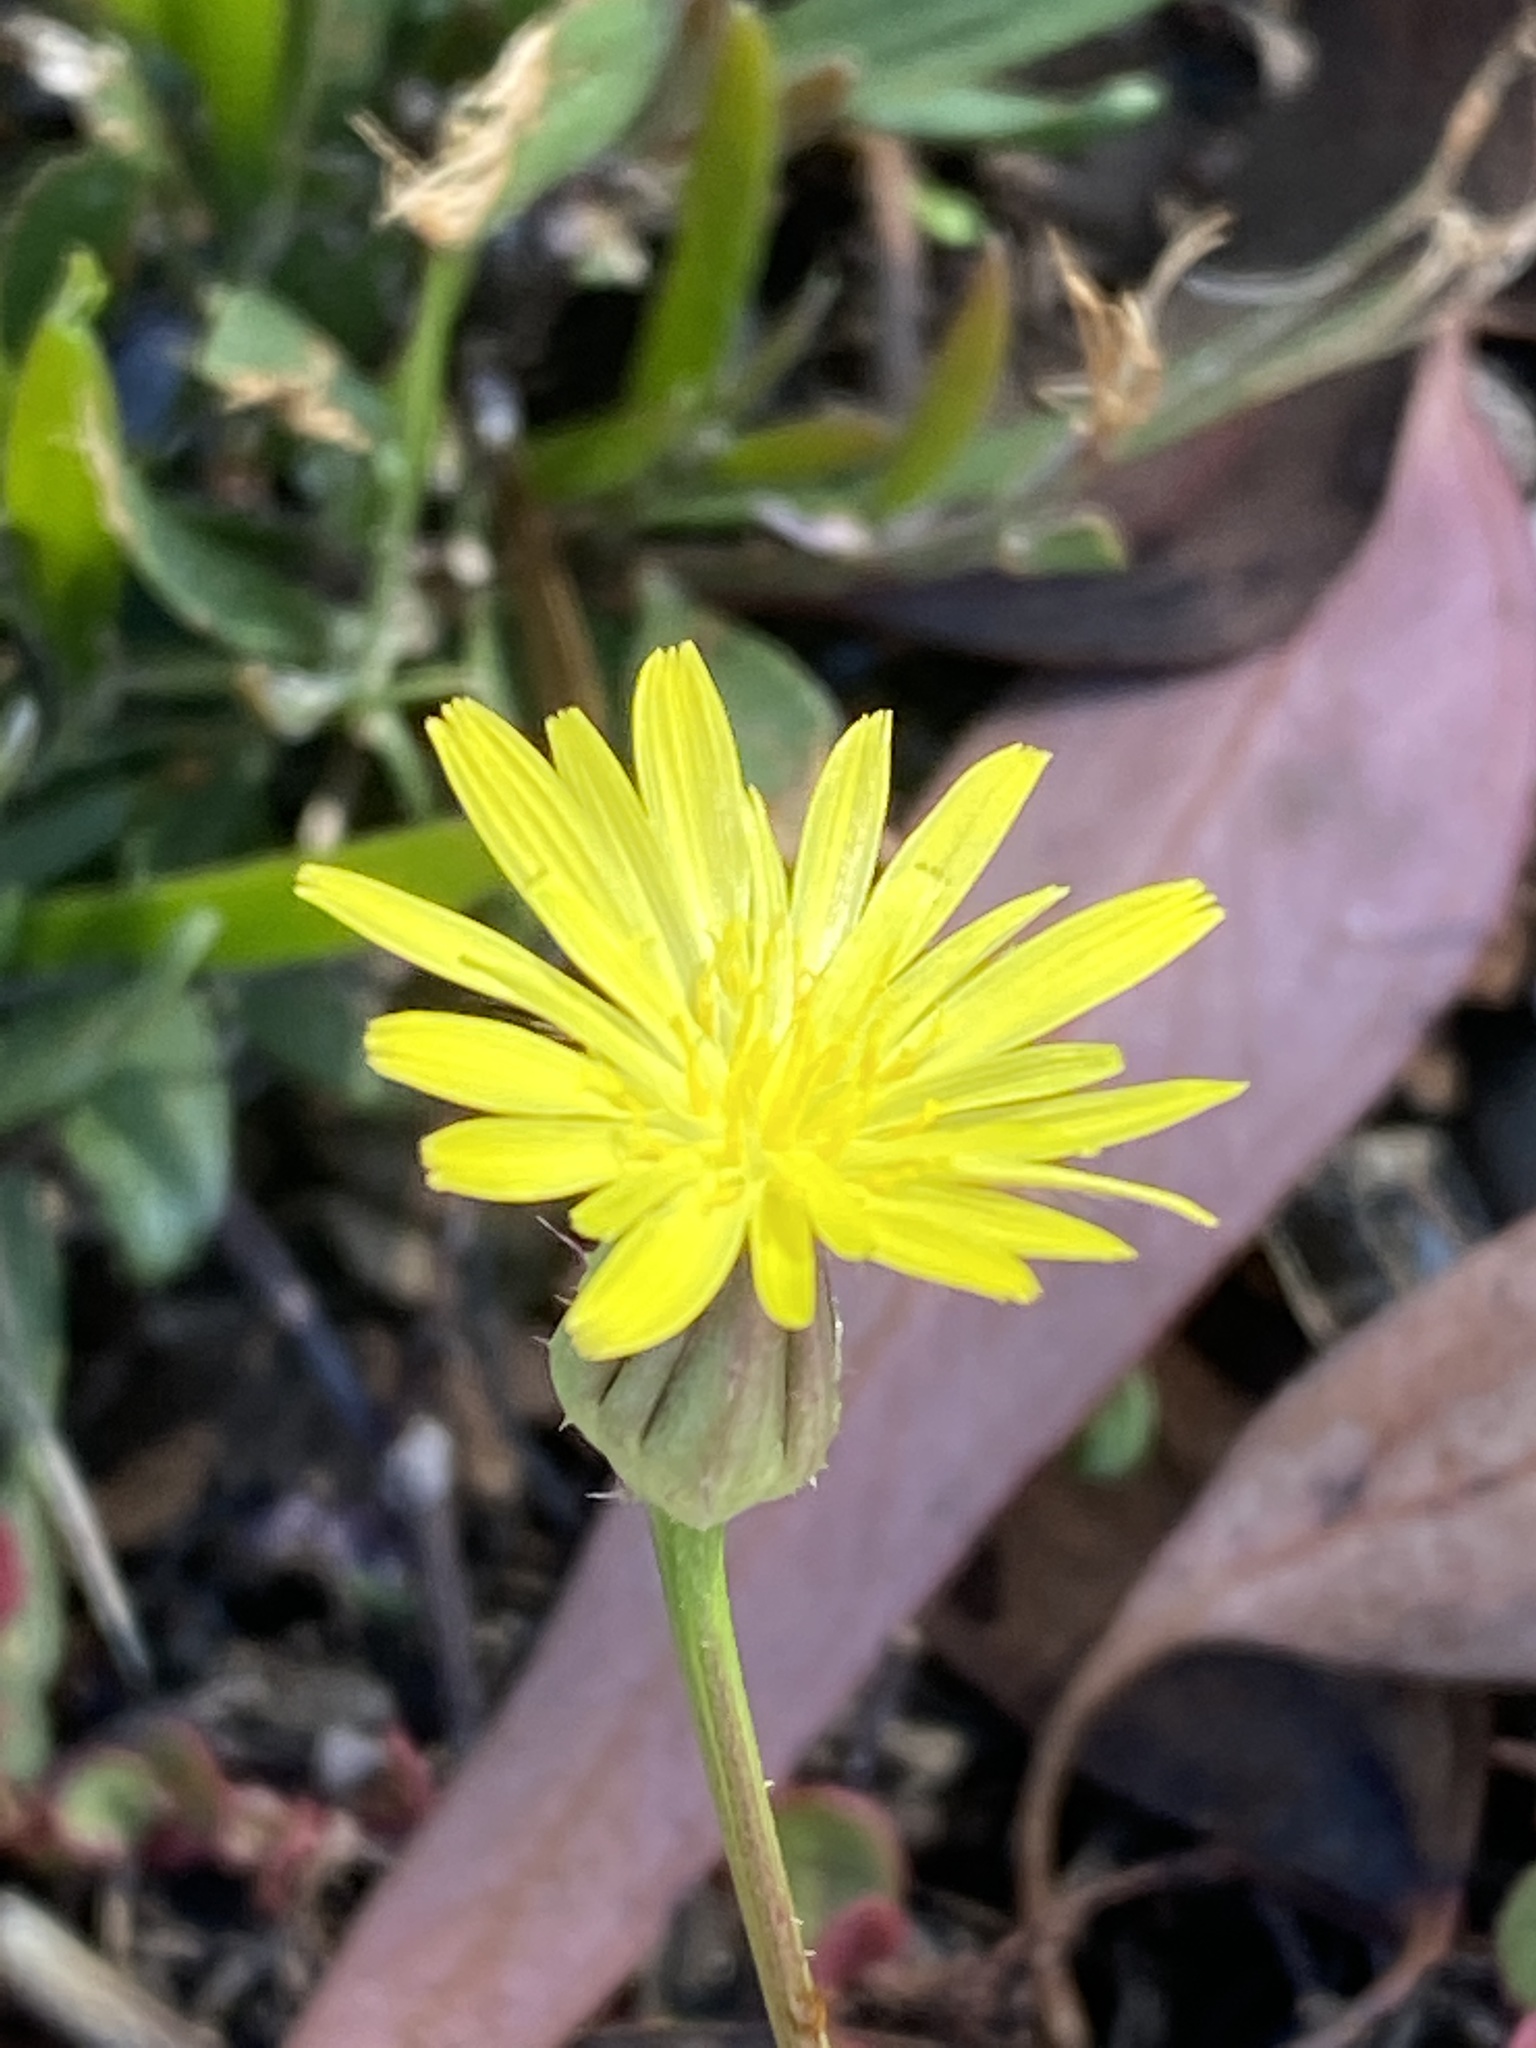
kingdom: Plantae
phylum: Tracheophyta
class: Magnoliopsida
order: Asterales
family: Asteraceae
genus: Urospermum
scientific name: Urospermum picroides
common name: False hawkbit
